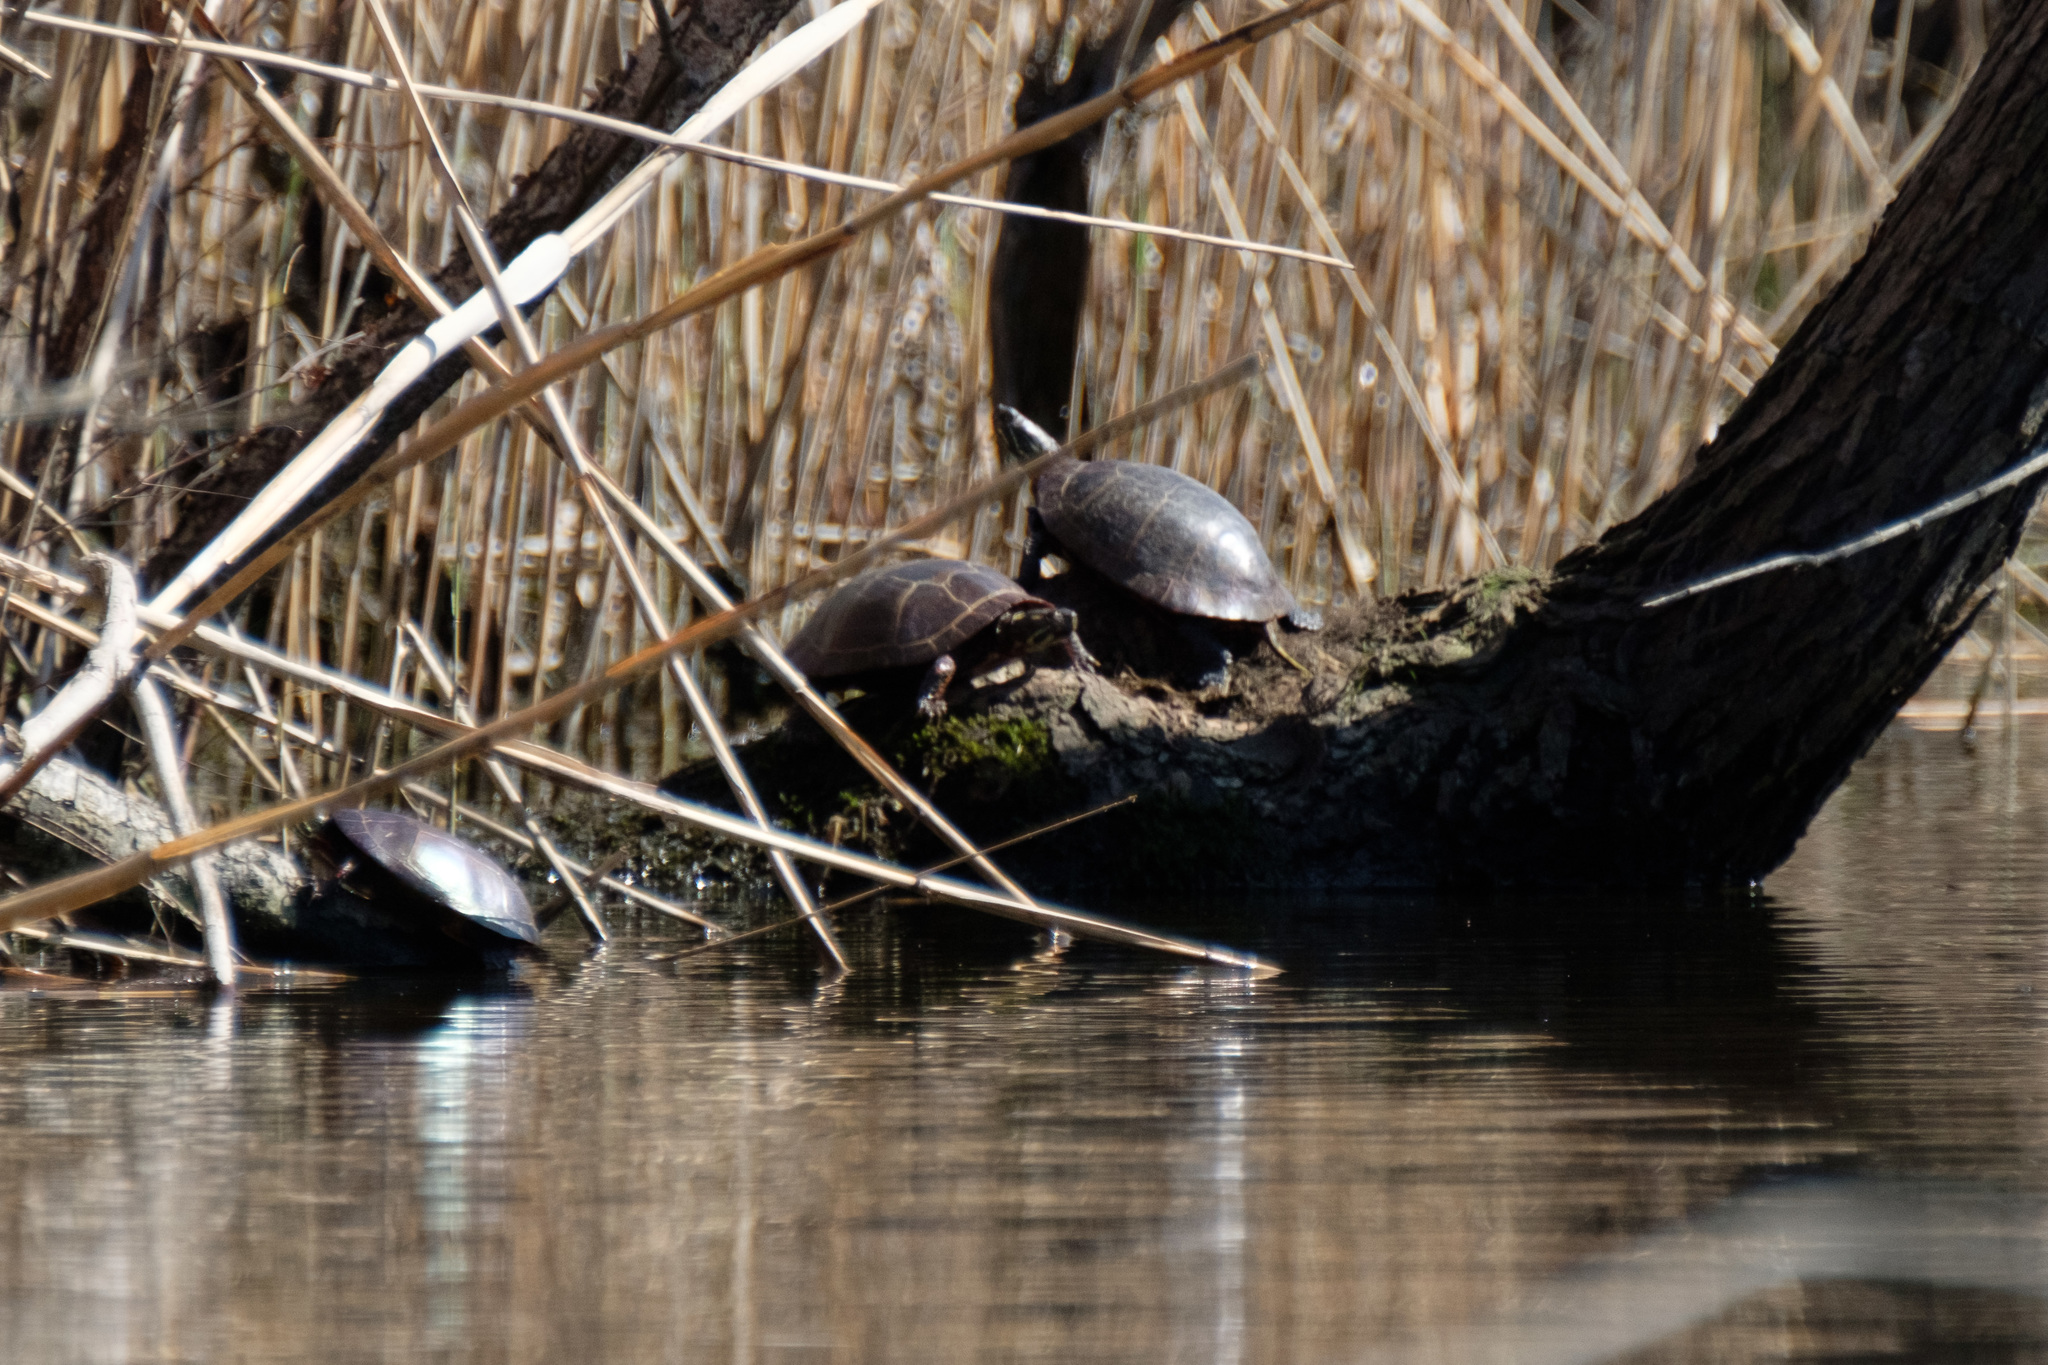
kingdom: Animalia
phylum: Chordata
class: Testudines
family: Emydidae
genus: Chrysemys
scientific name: Chrysemys picta
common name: Painted turtle
